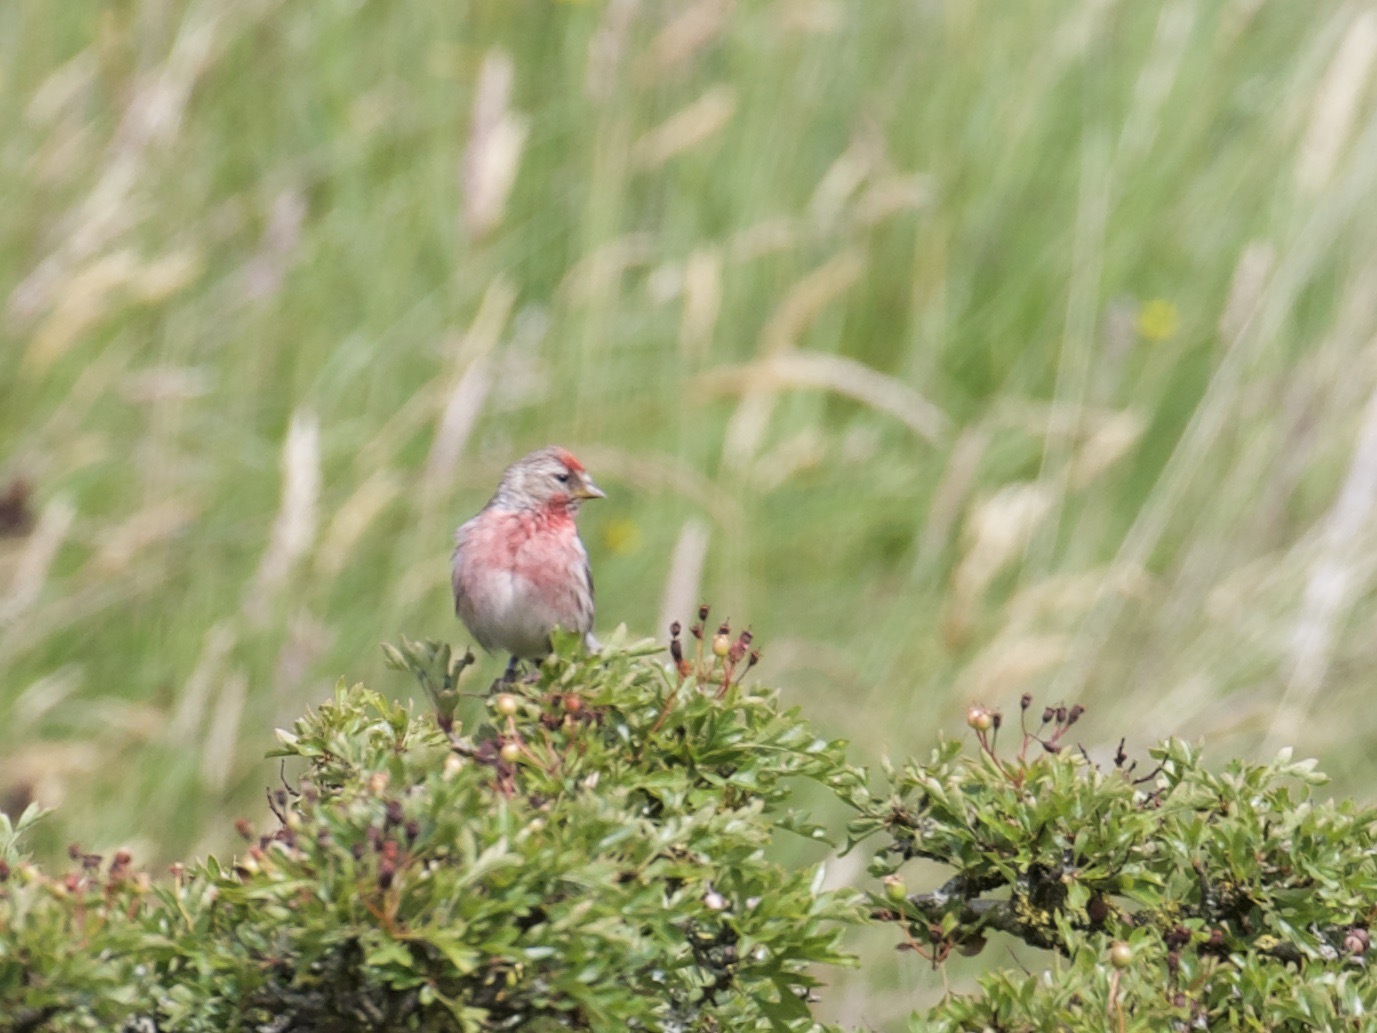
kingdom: Animalia
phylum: Chordata
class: Aves
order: Passeriformes
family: Fringillidae
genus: Acanthis
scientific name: Acanthis flammea
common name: Common redpoll
